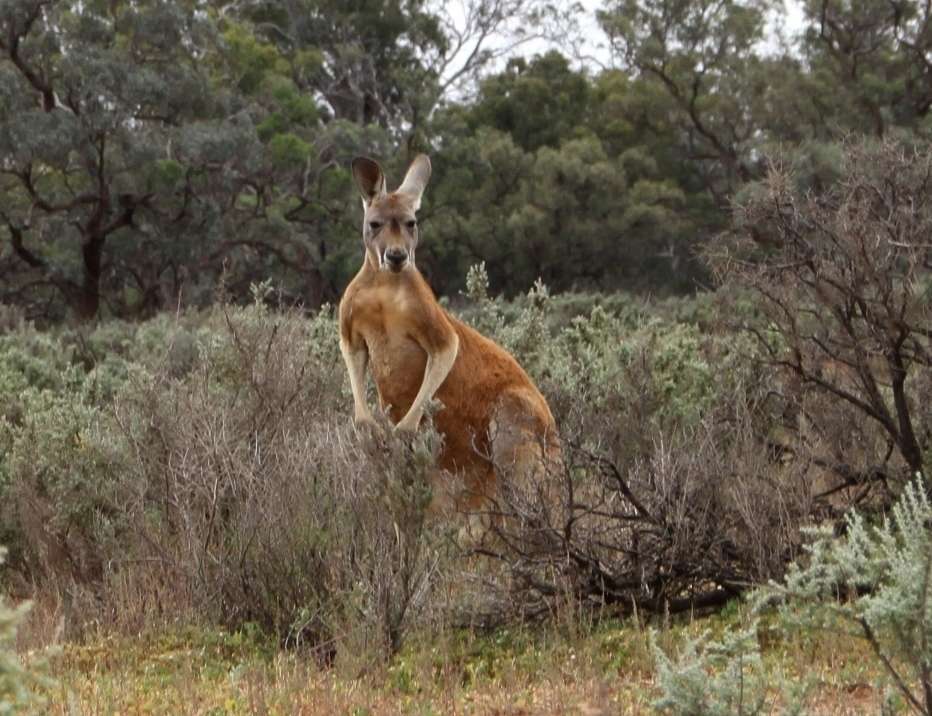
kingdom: Animalia
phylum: Chordata
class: Mammalia
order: Diprotodontia
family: Macropodidae
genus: Macropus
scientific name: Macropus rufus
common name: Red kangaroo
